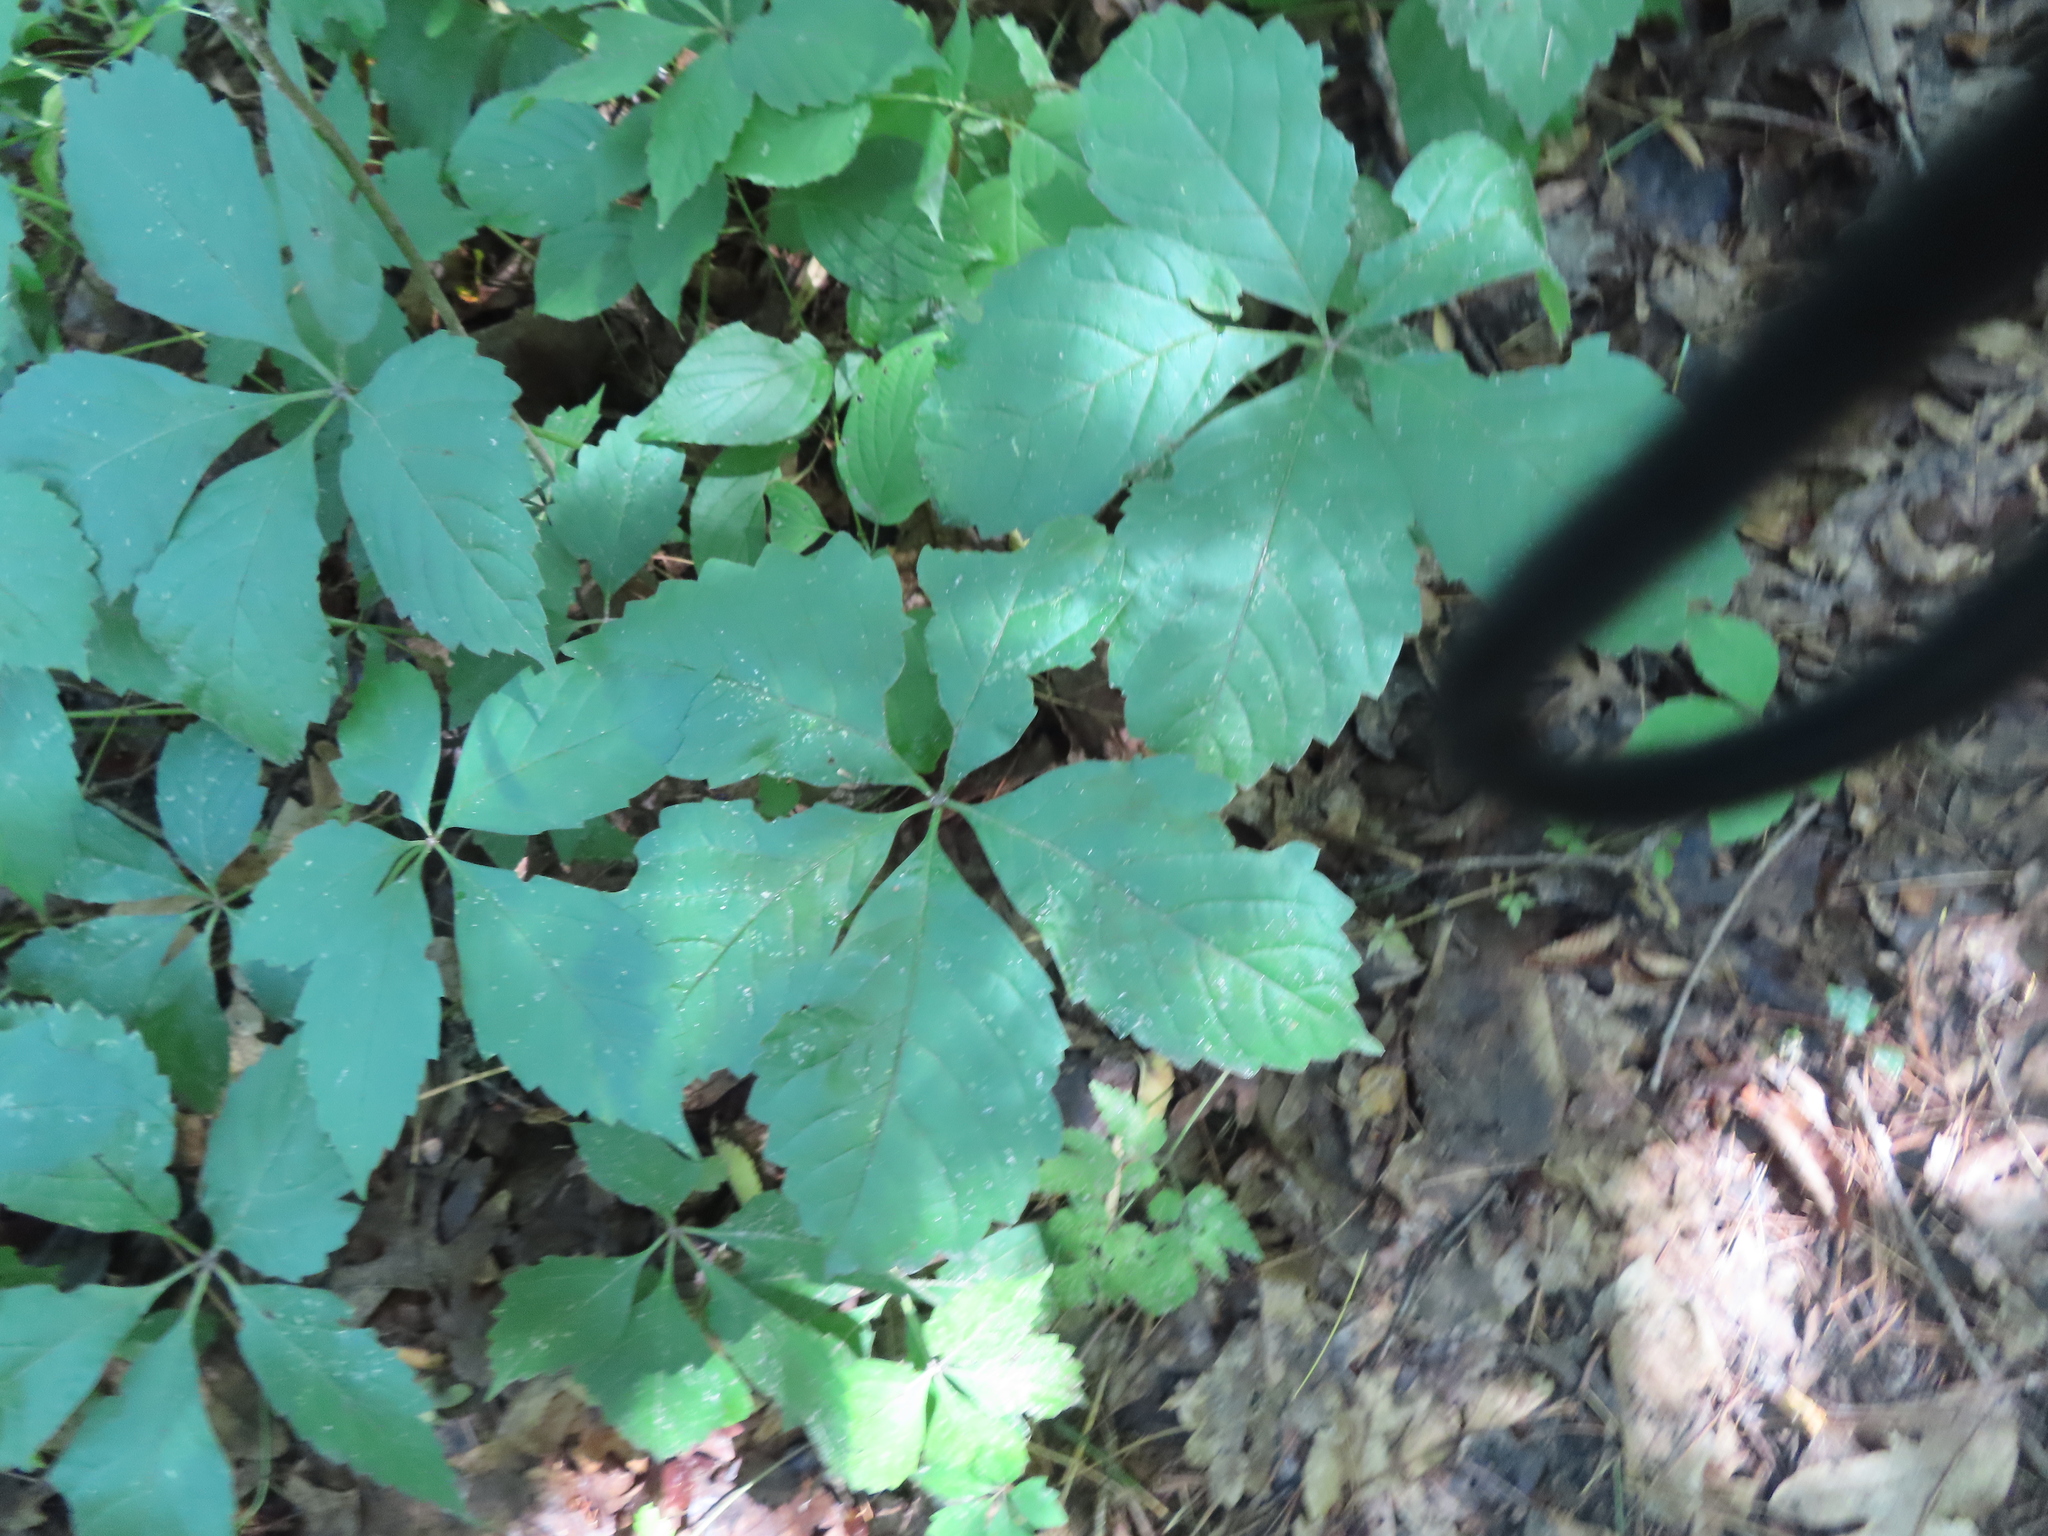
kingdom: Plantae
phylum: Tracheophyta
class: Magnoliopsida
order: Vitales
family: Vitaceae
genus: Parthenocissus
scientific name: Parthenocissus quinquefolia
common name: Virginia-creeper
